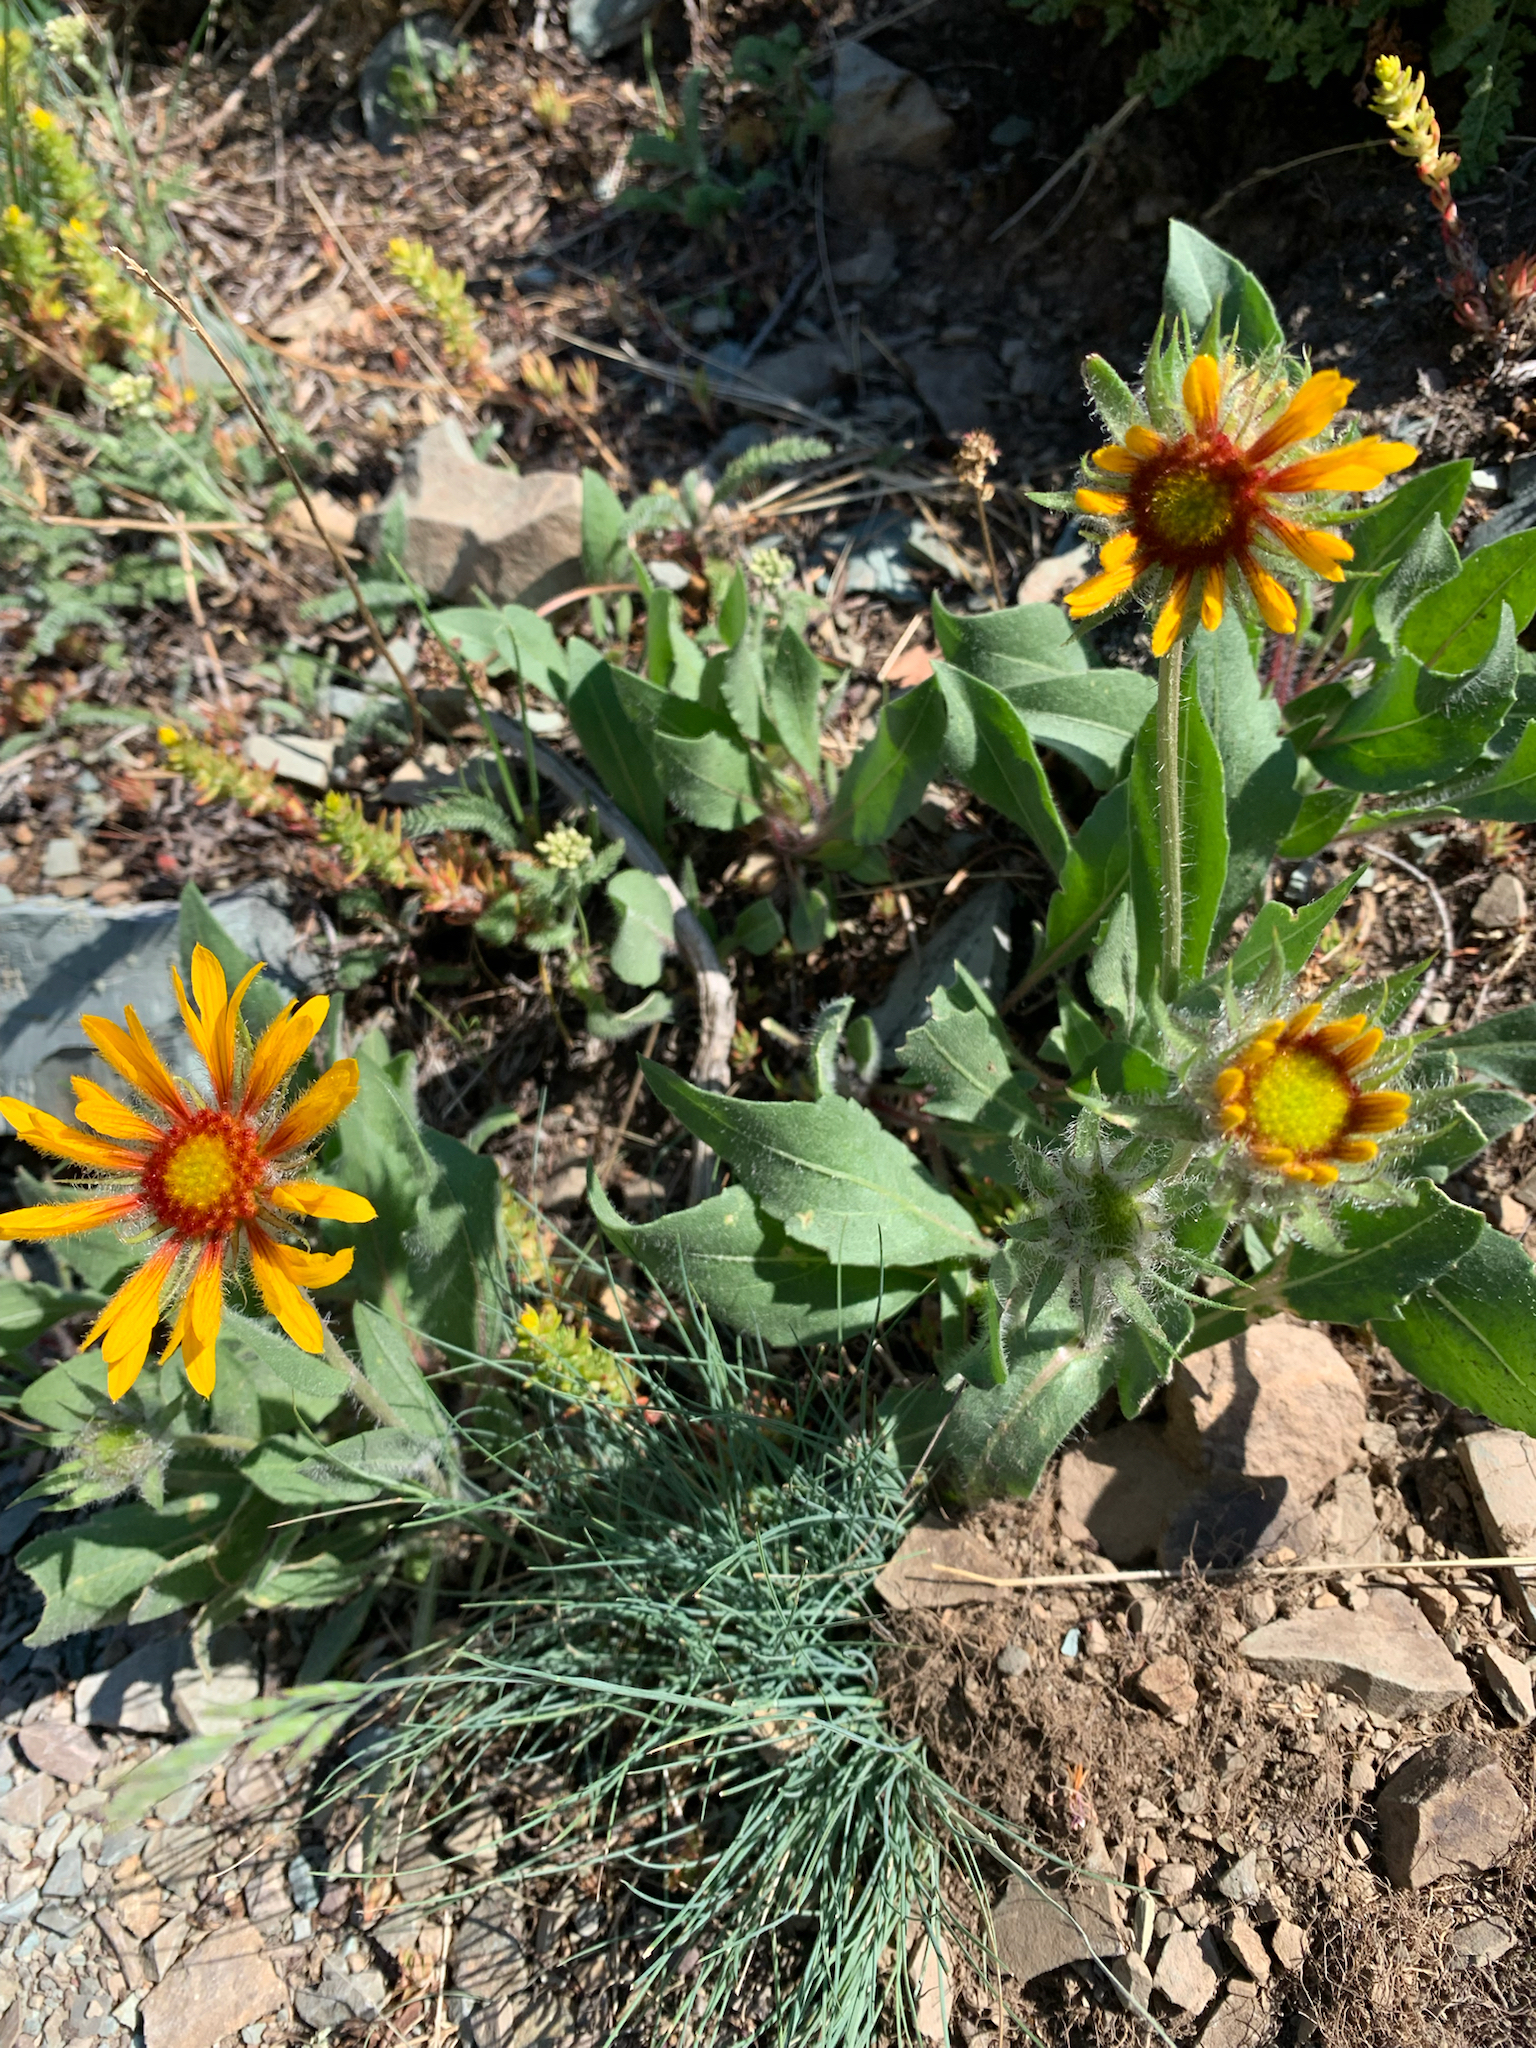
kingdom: Plantae
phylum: Tracheophyta
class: Magnoliopsida
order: Asterales
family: Asteraceae
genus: Gaillardia
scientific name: Gaillardia aristata
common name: Blanket-flower
